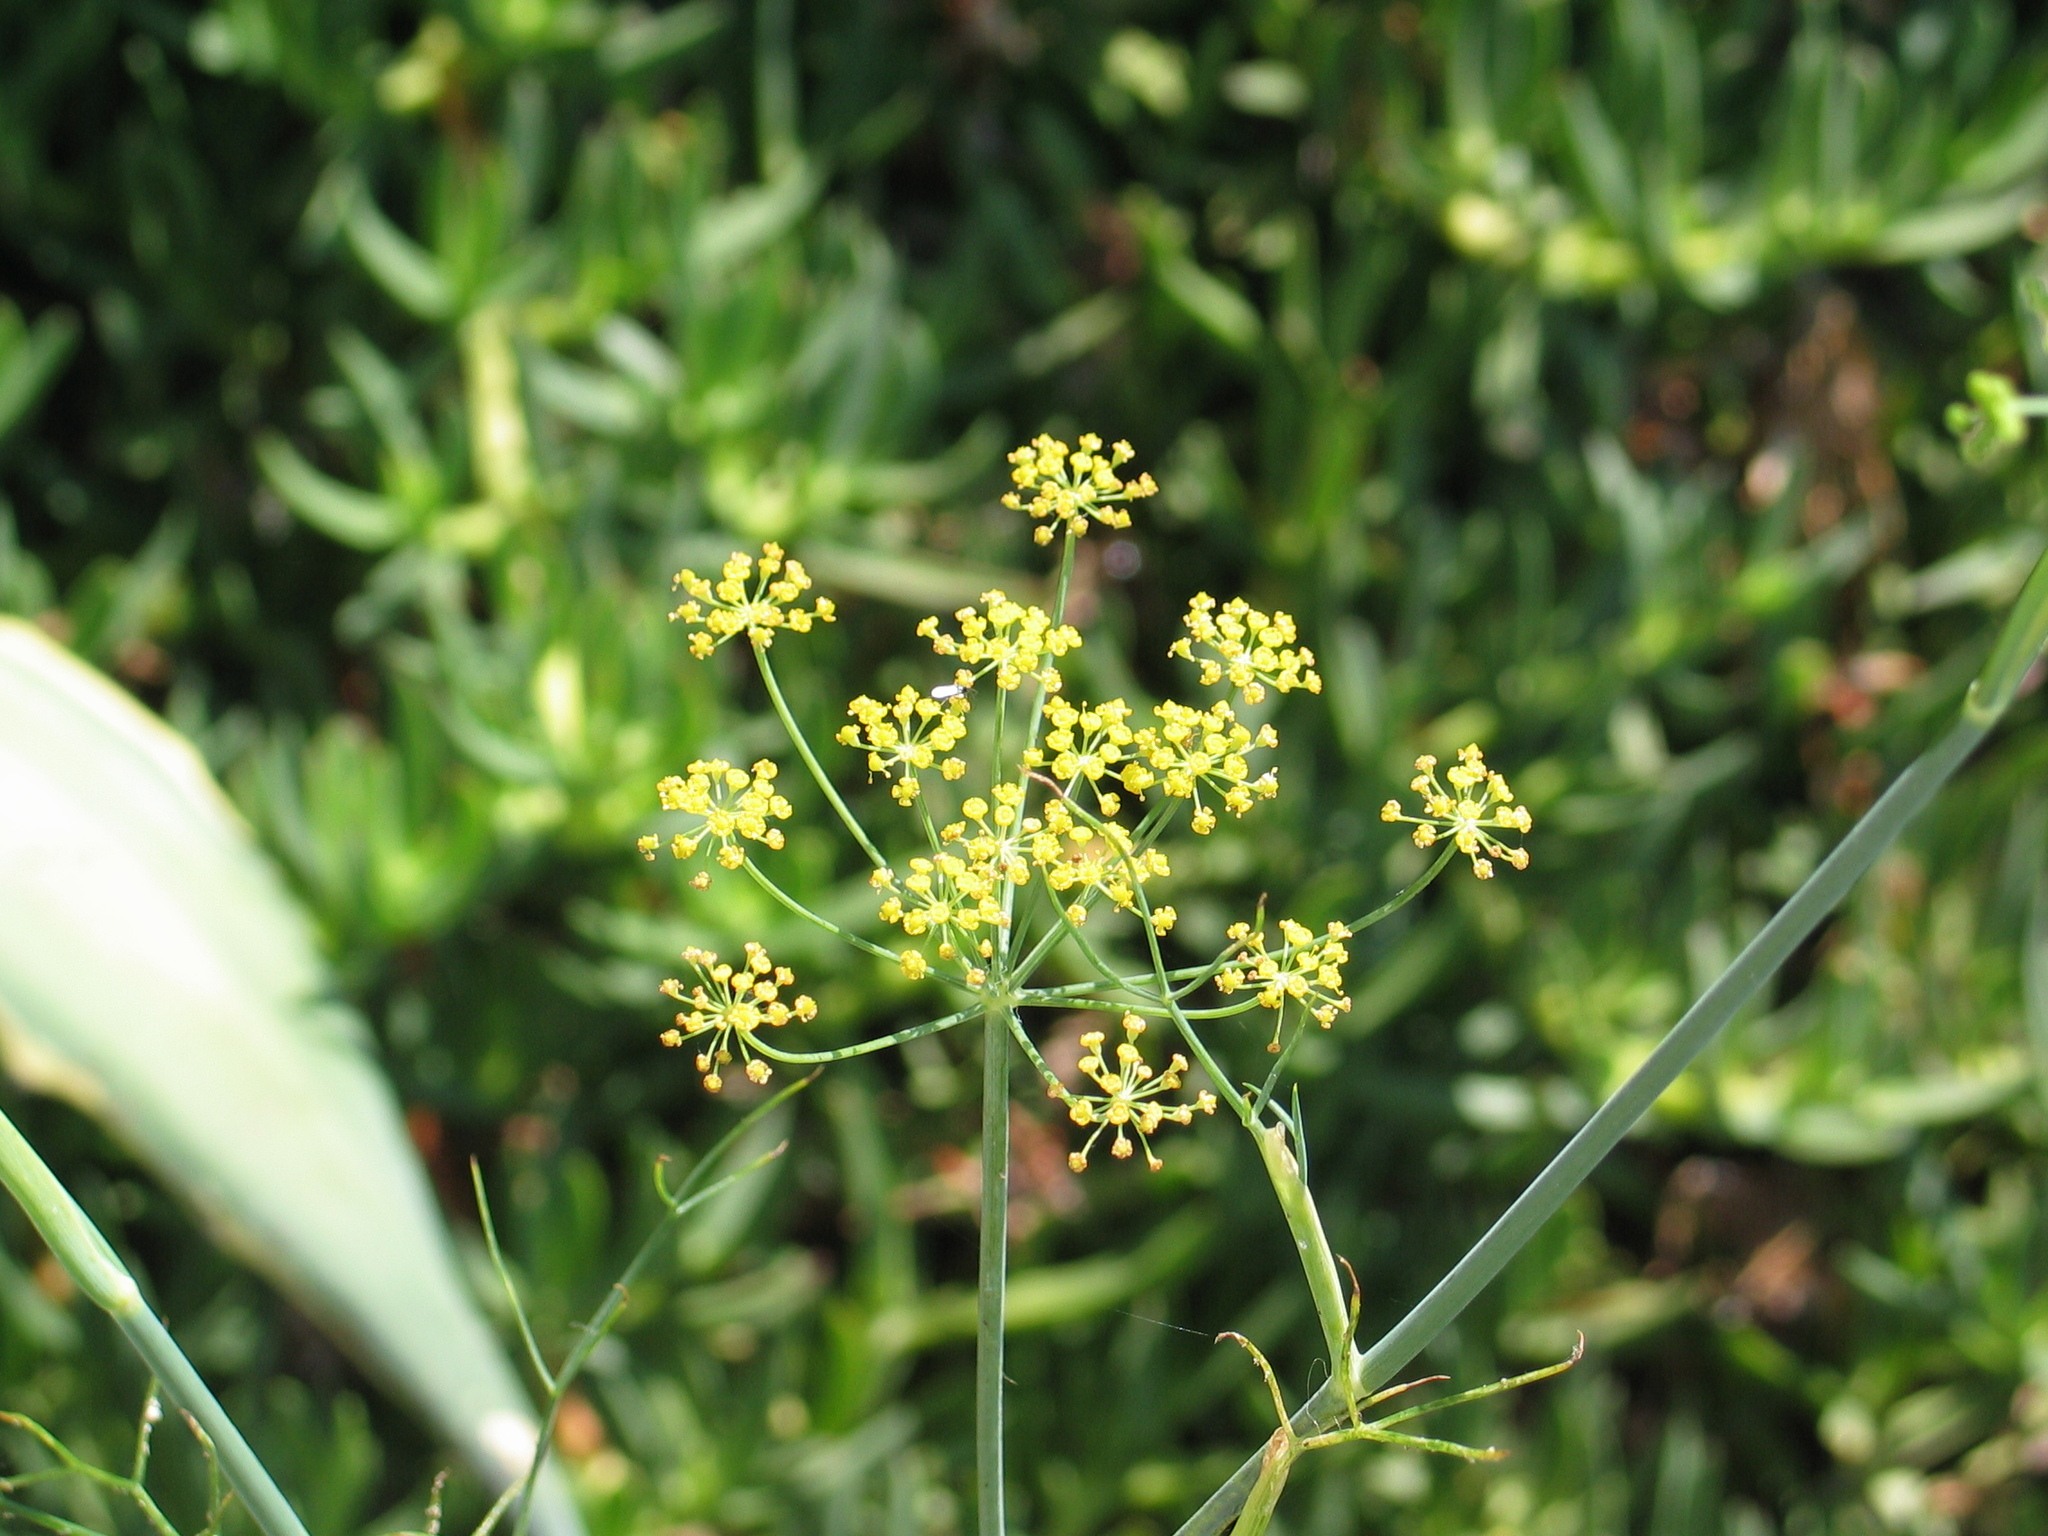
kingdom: Plantae
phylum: Tracheophyta
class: Magnoliopsida
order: Apiales
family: Apiaceae
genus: Foeniculum
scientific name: Foeniculum vulgare
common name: Fennel
